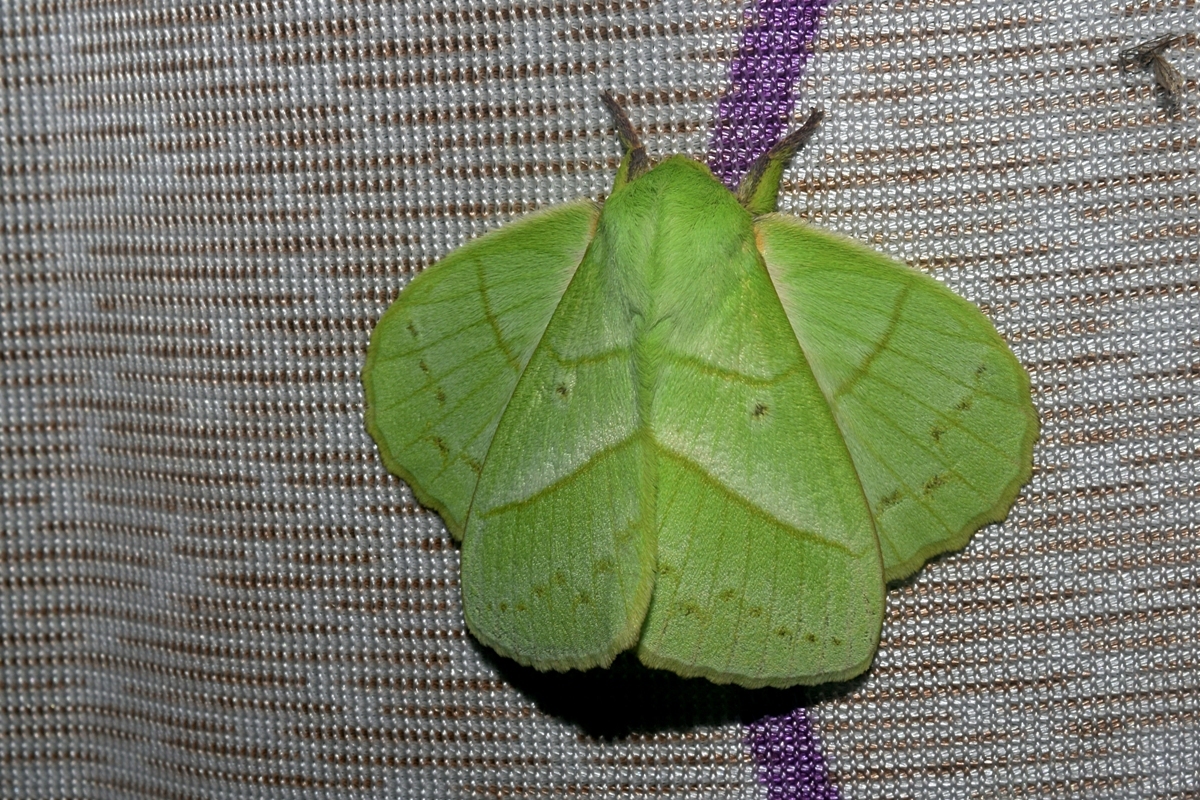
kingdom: Animalia
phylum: Arthropoda
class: Insecta
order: Lepidoptera
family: Lasiocampidae
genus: Trabala
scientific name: Trabala vishnou
